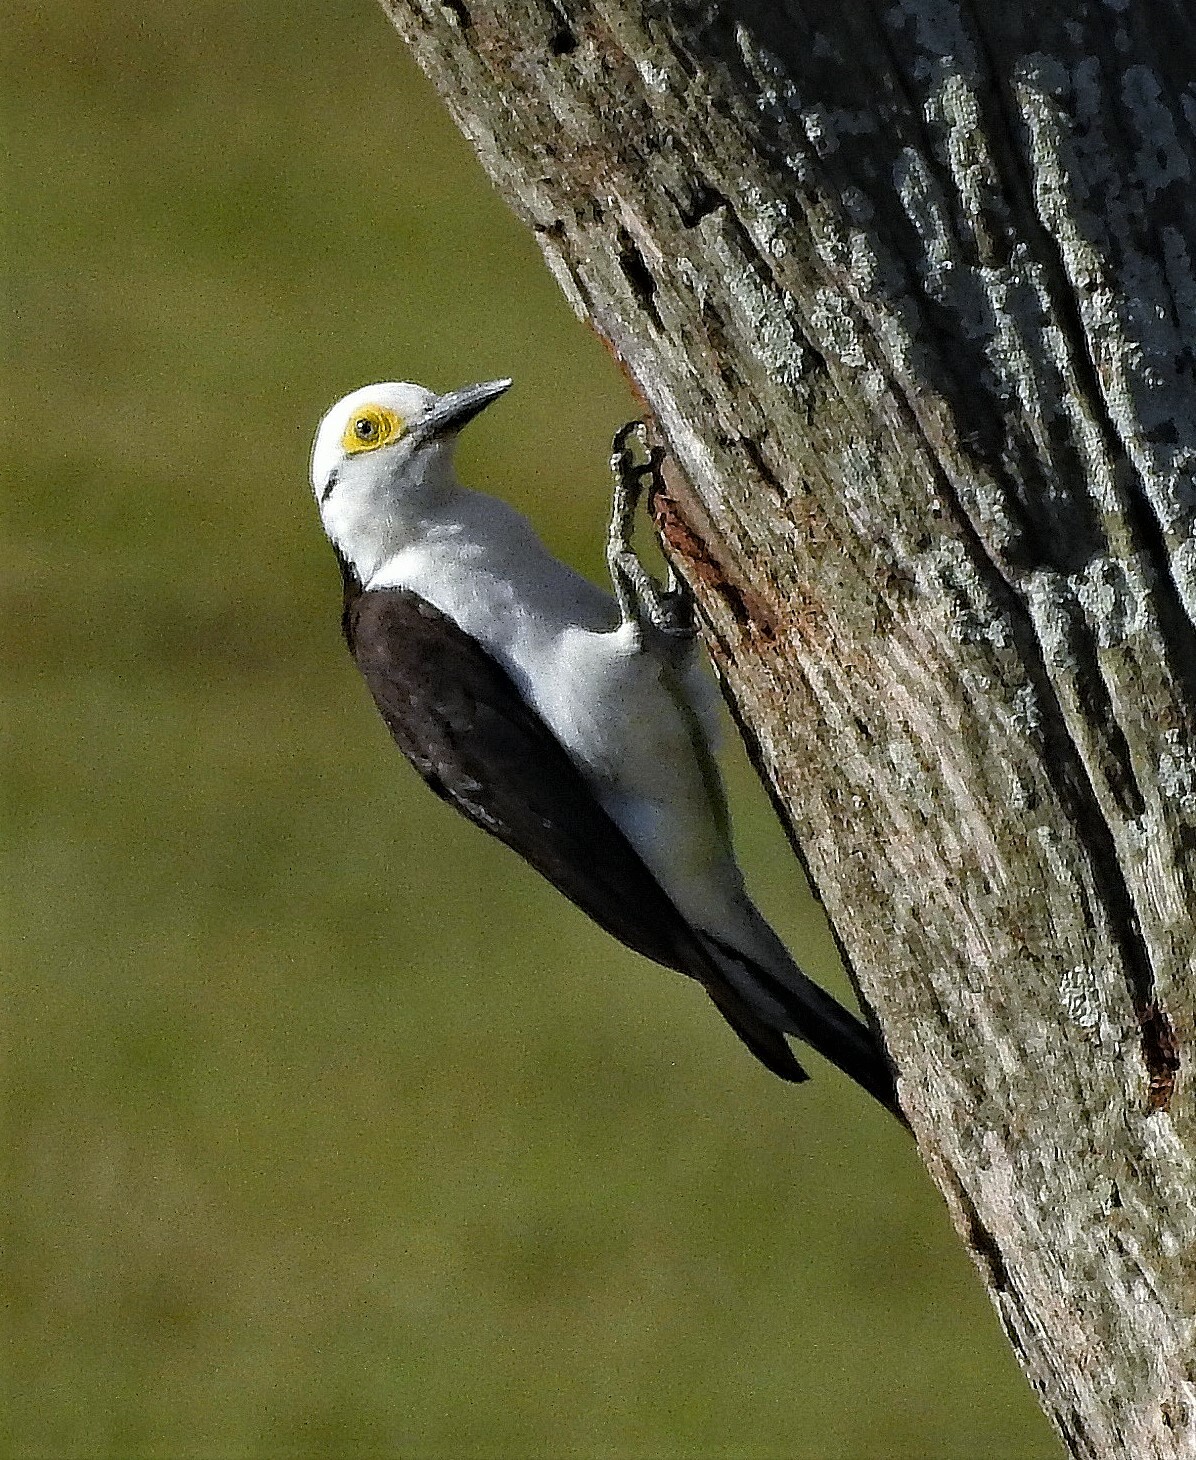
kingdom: Animalia
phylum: Chordata
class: Aves
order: Piciformes
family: Picidae
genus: Melanerpes
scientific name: Melanerpes candidus
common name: White woodpecker
